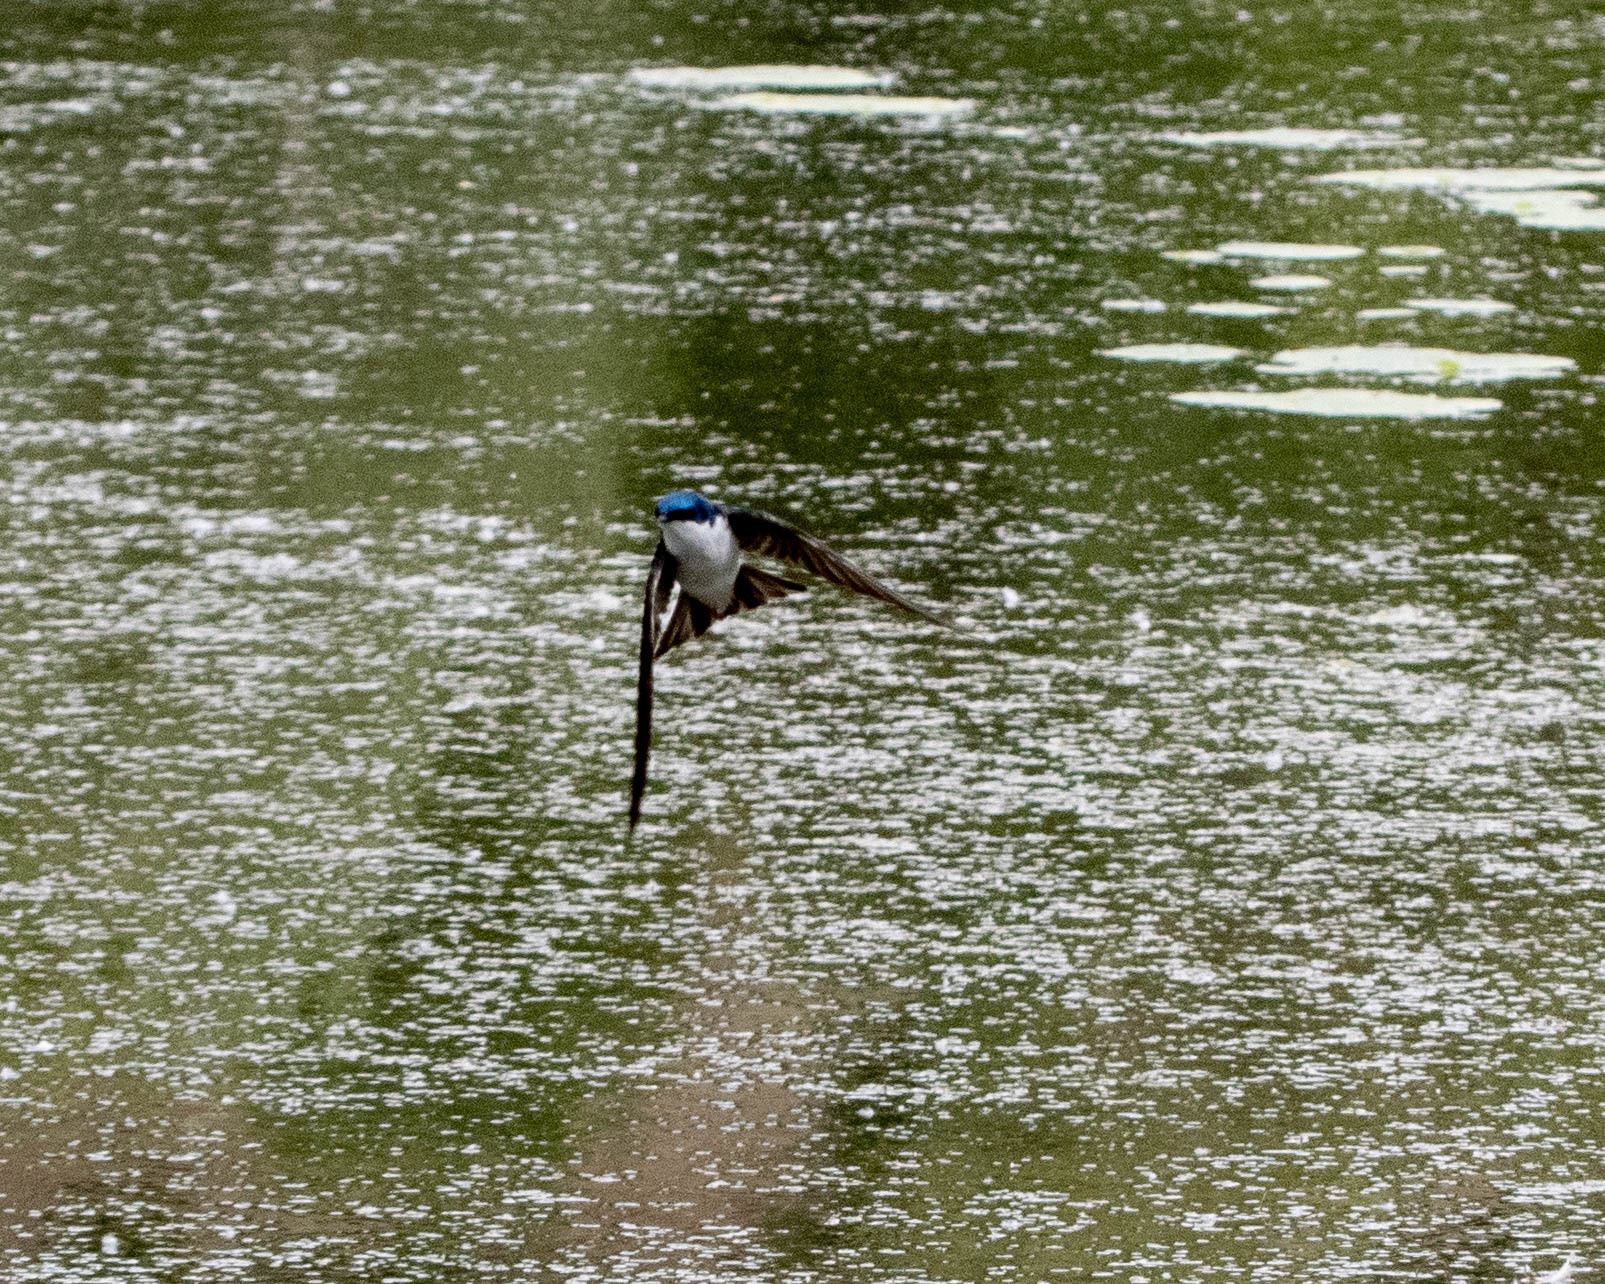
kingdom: Animalia
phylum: Chordata
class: Aves
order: Passeriformes
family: Hirundinidae
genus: Tachycineta
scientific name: Tachycineta bicolor
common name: Tree swallow
